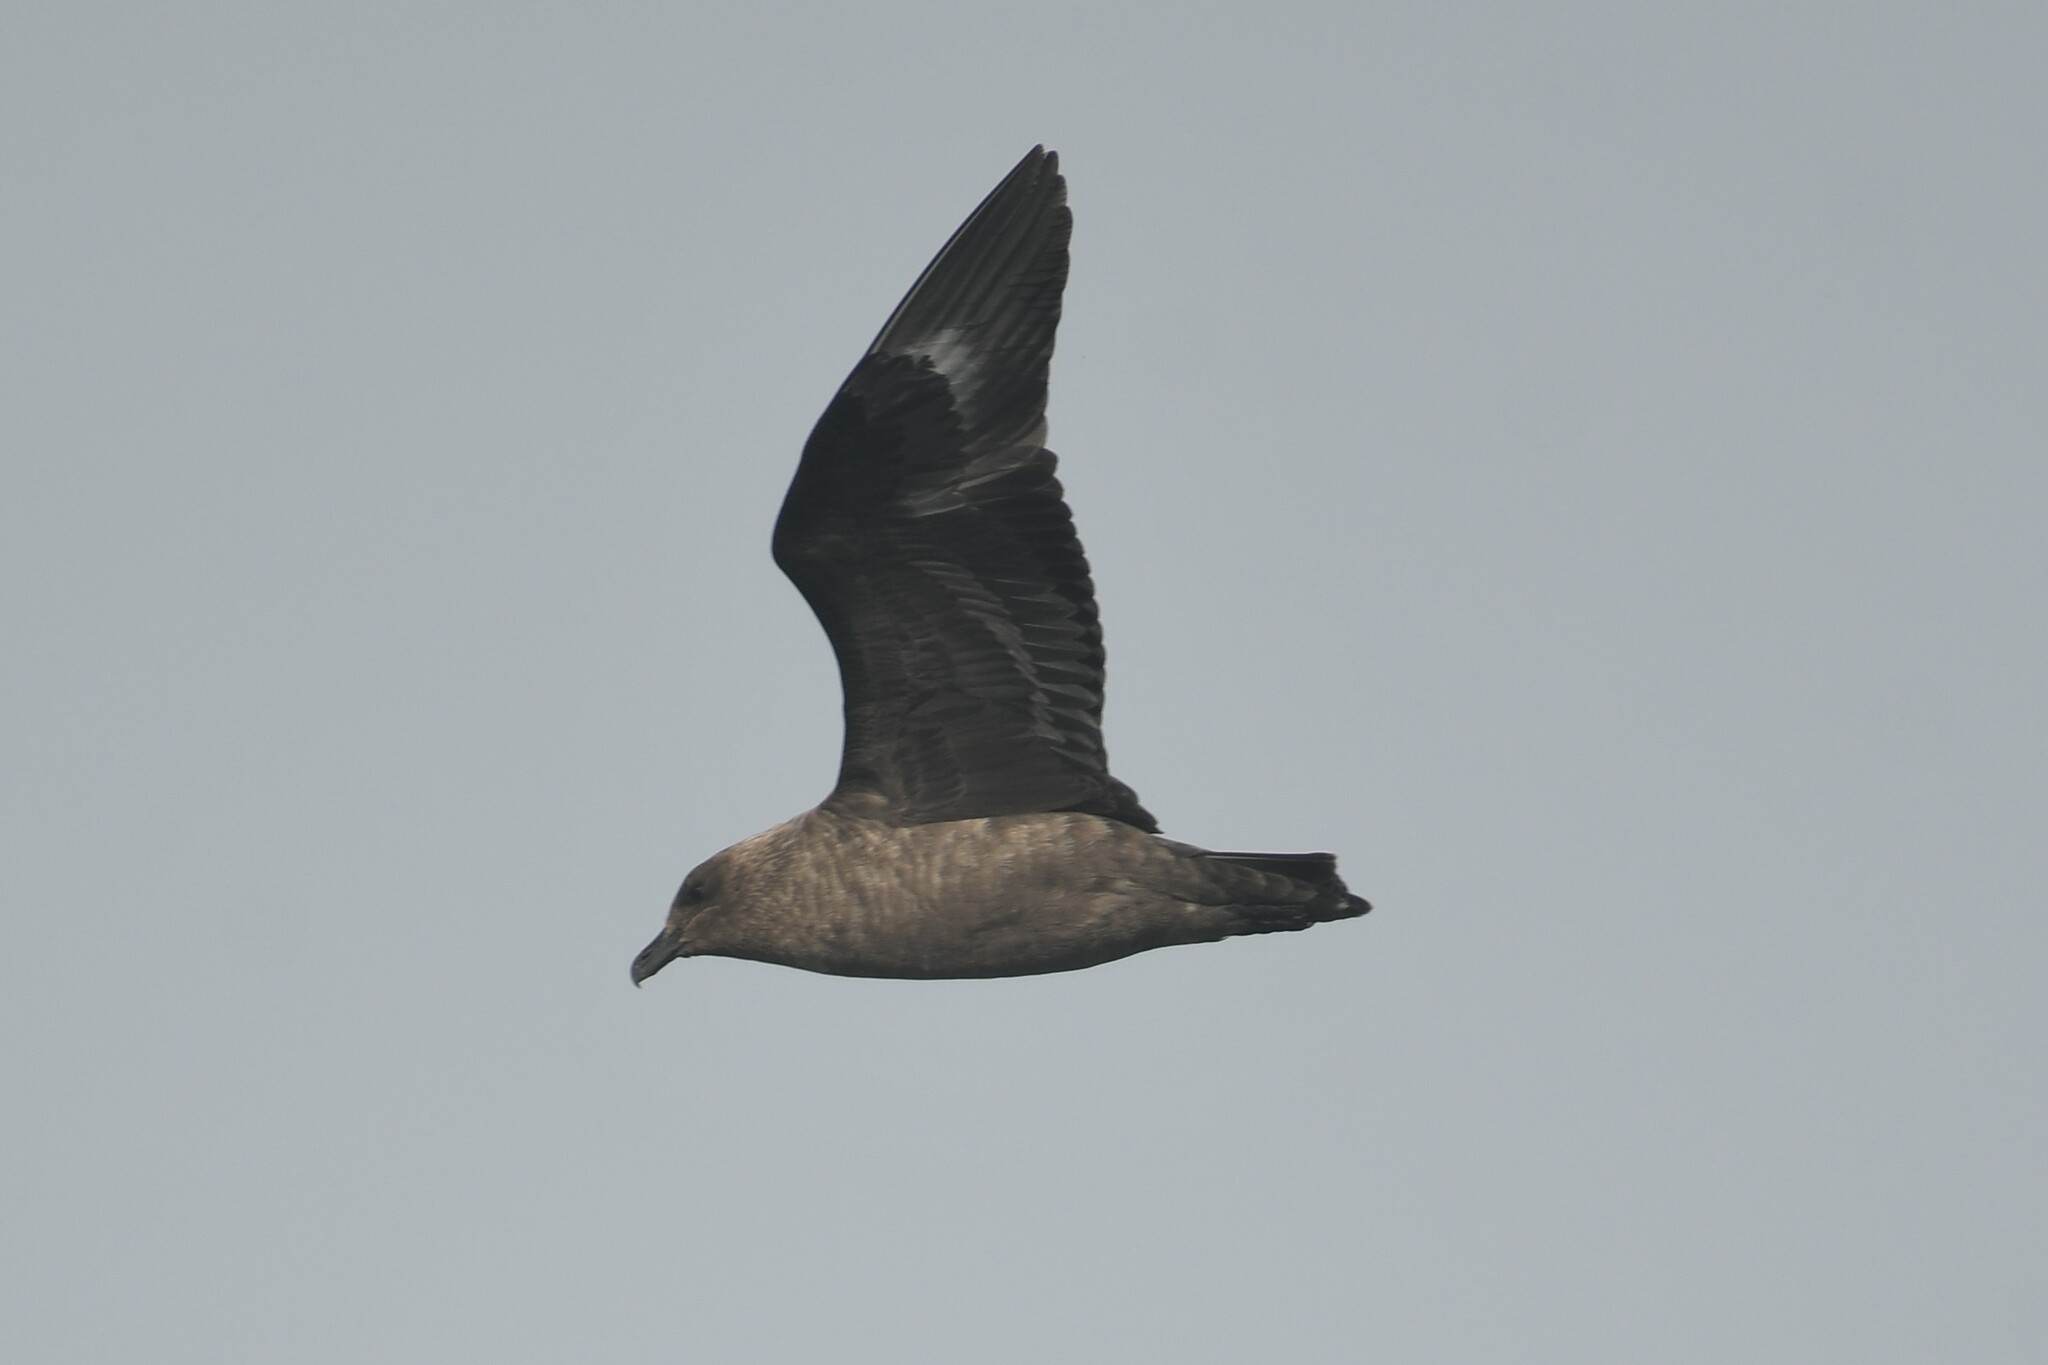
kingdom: Animalia
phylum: Chordata
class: Aves
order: Charadriiformes
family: Stercorariidae
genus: Stercorarius
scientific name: Stercorarius maccormicki
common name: South polar skua
